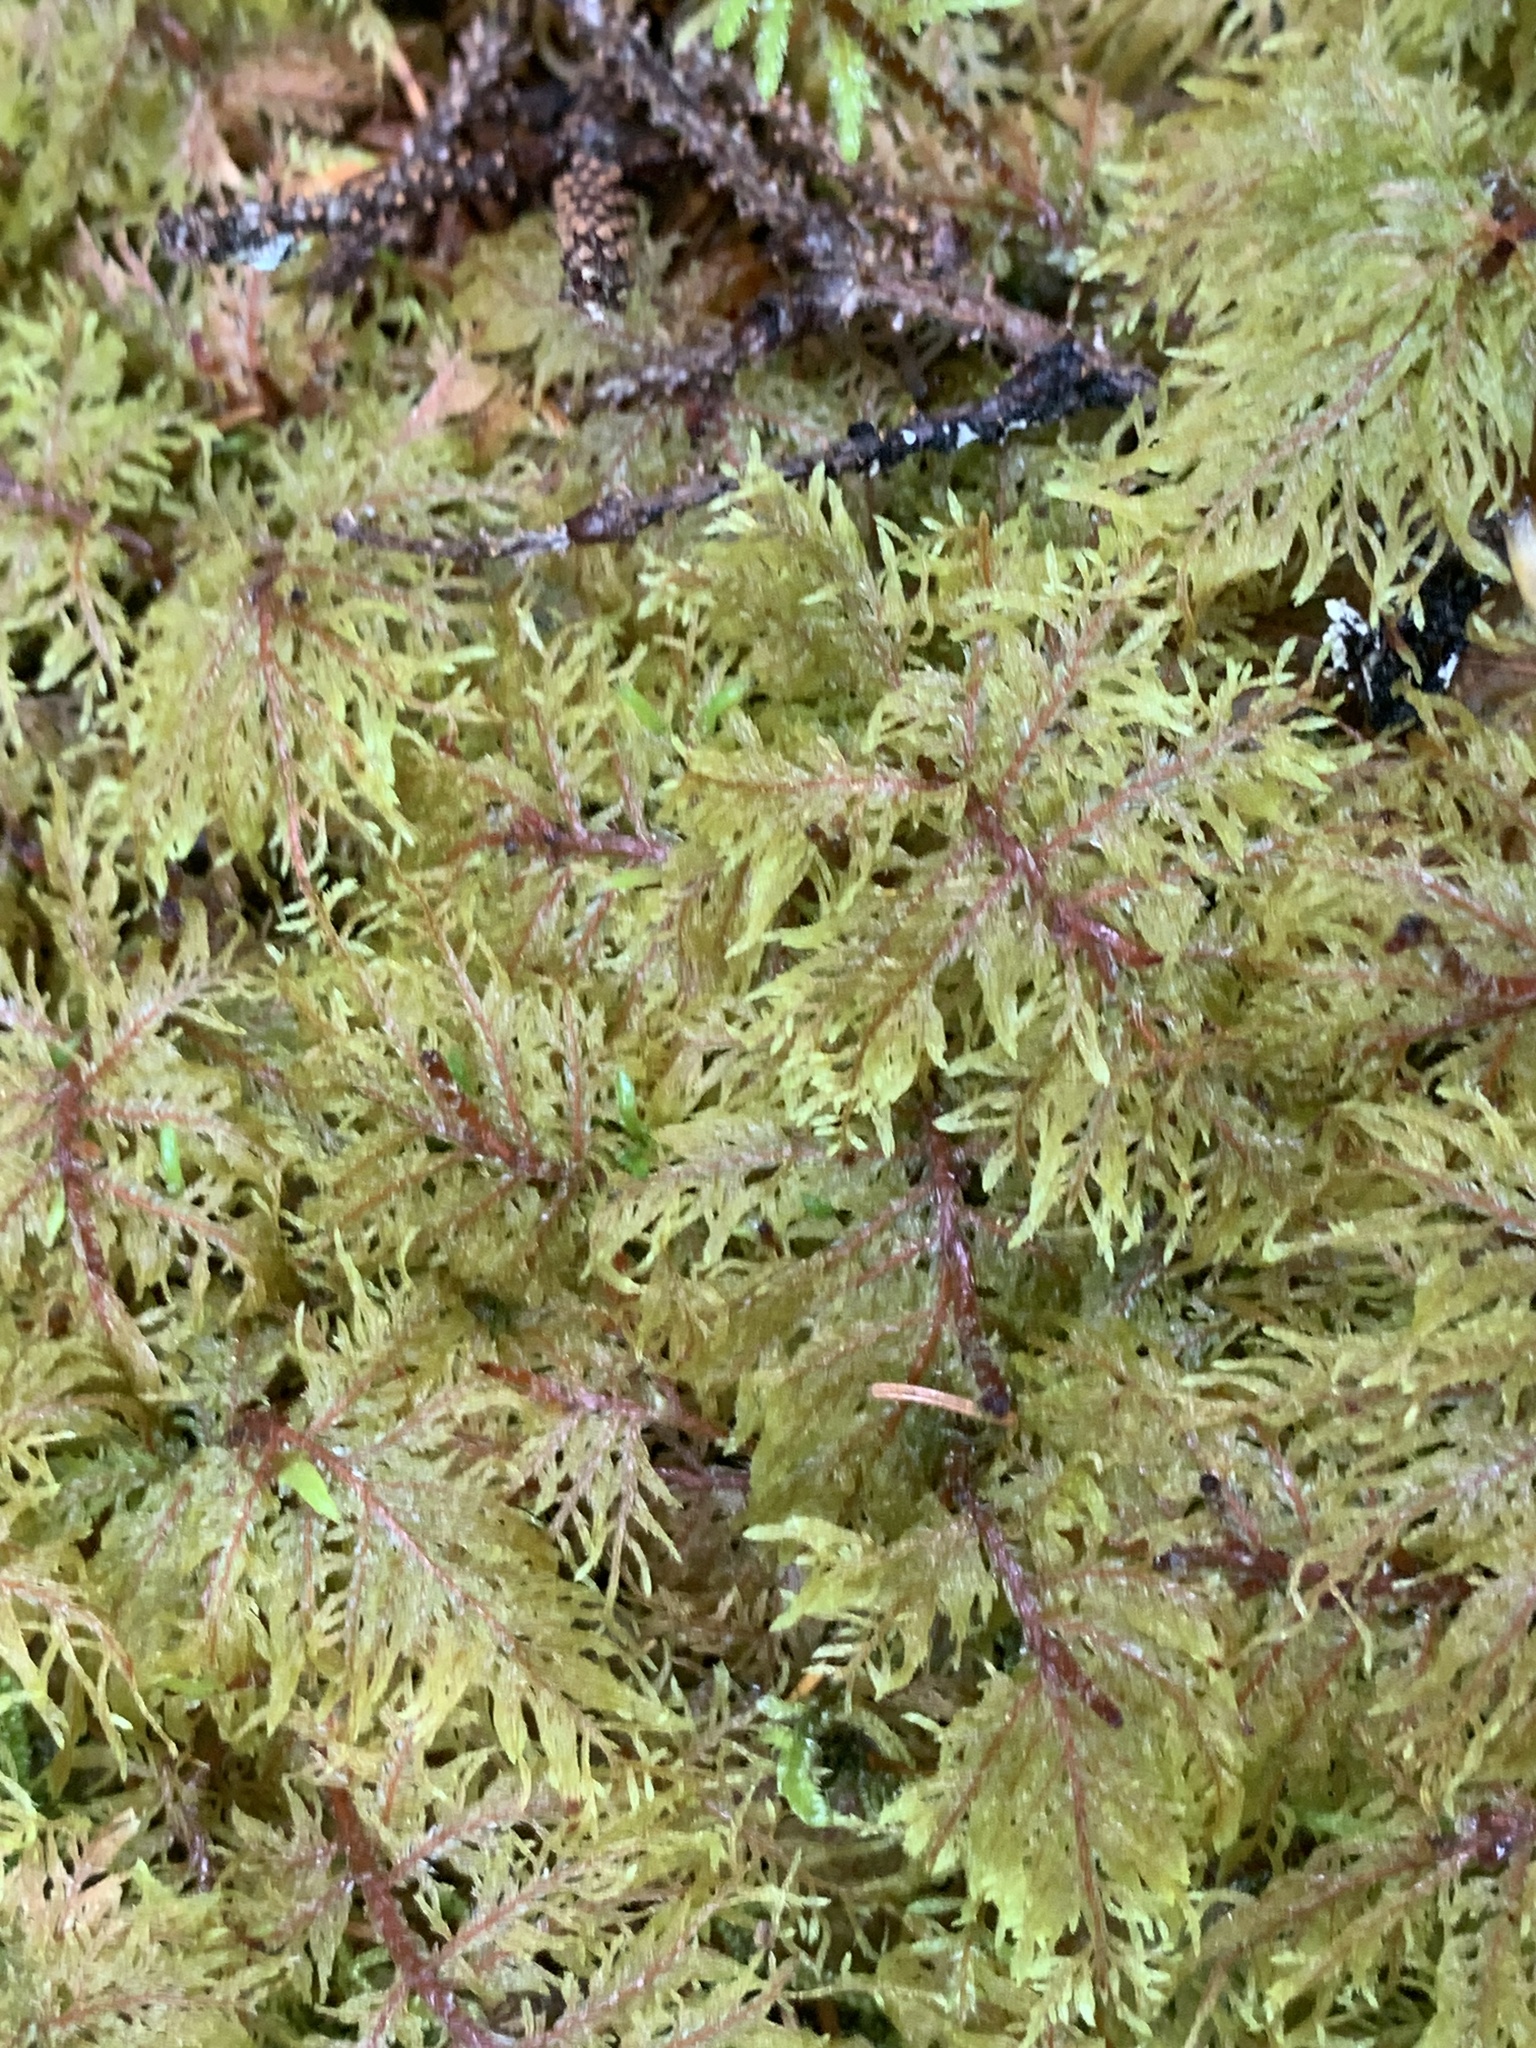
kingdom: Plantae
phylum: Bryophyta
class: Bryopsida
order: Hypnales
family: Hylocomiaceae
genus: Hylocomium
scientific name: Hylocomium splendens
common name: Stairstep moss
